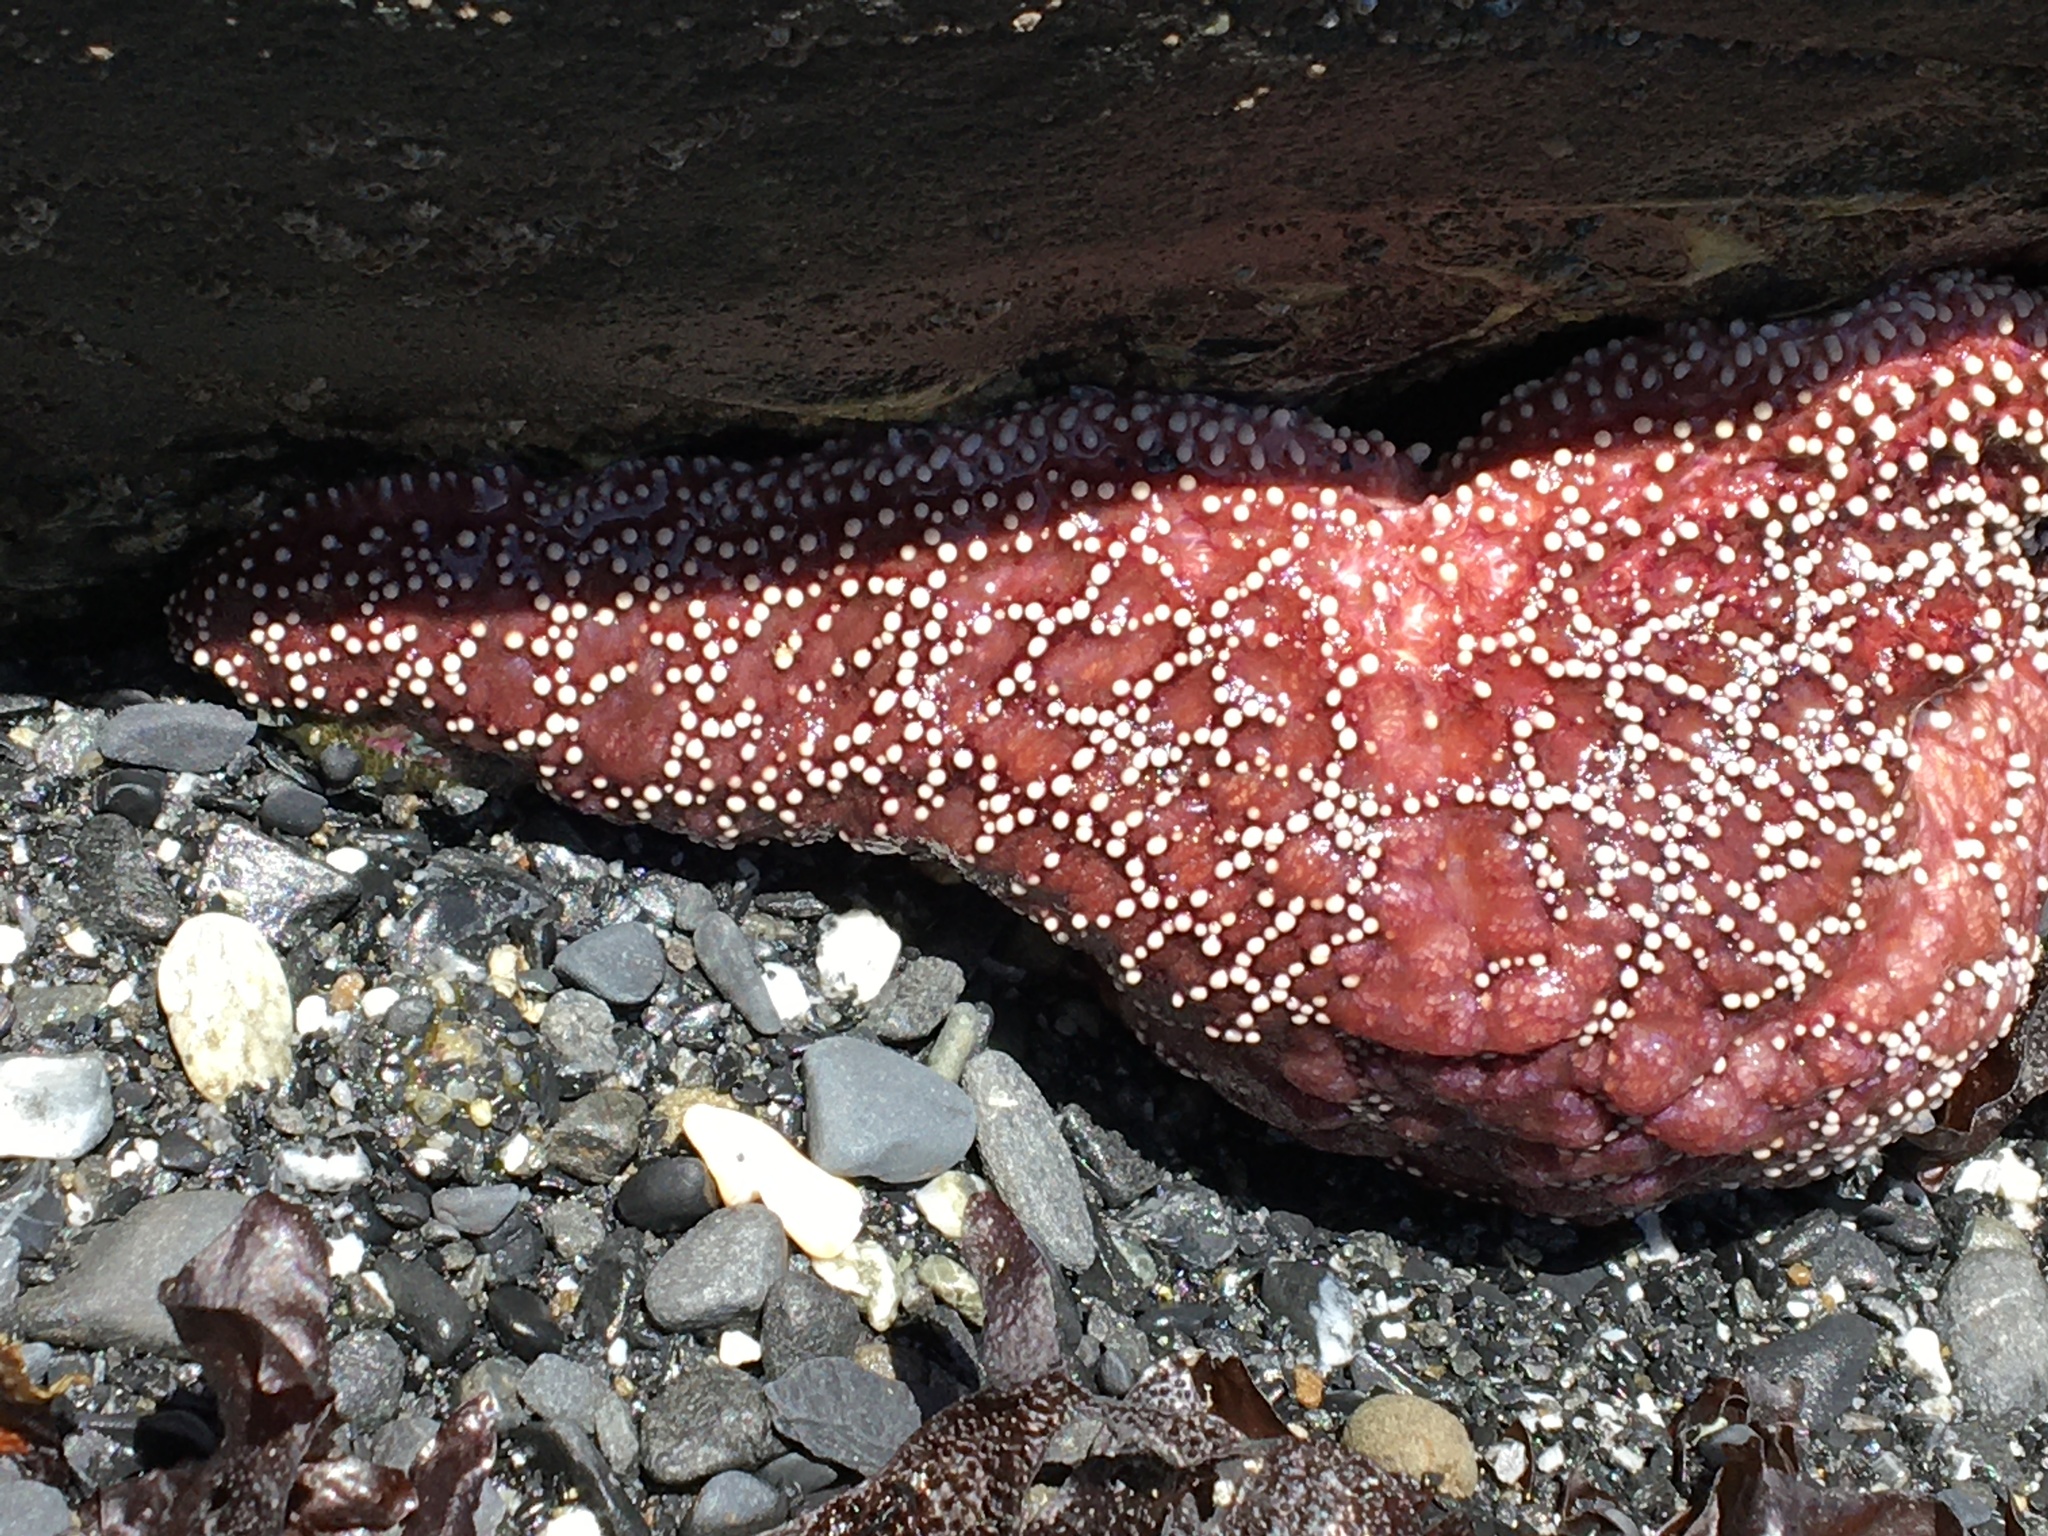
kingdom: Animalia
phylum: Echinodermata
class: Asteroidea
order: Forcipulatida
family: Asteriidae
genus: Pisaster
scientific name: Pisaster ochraceus
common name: Ochre stars
